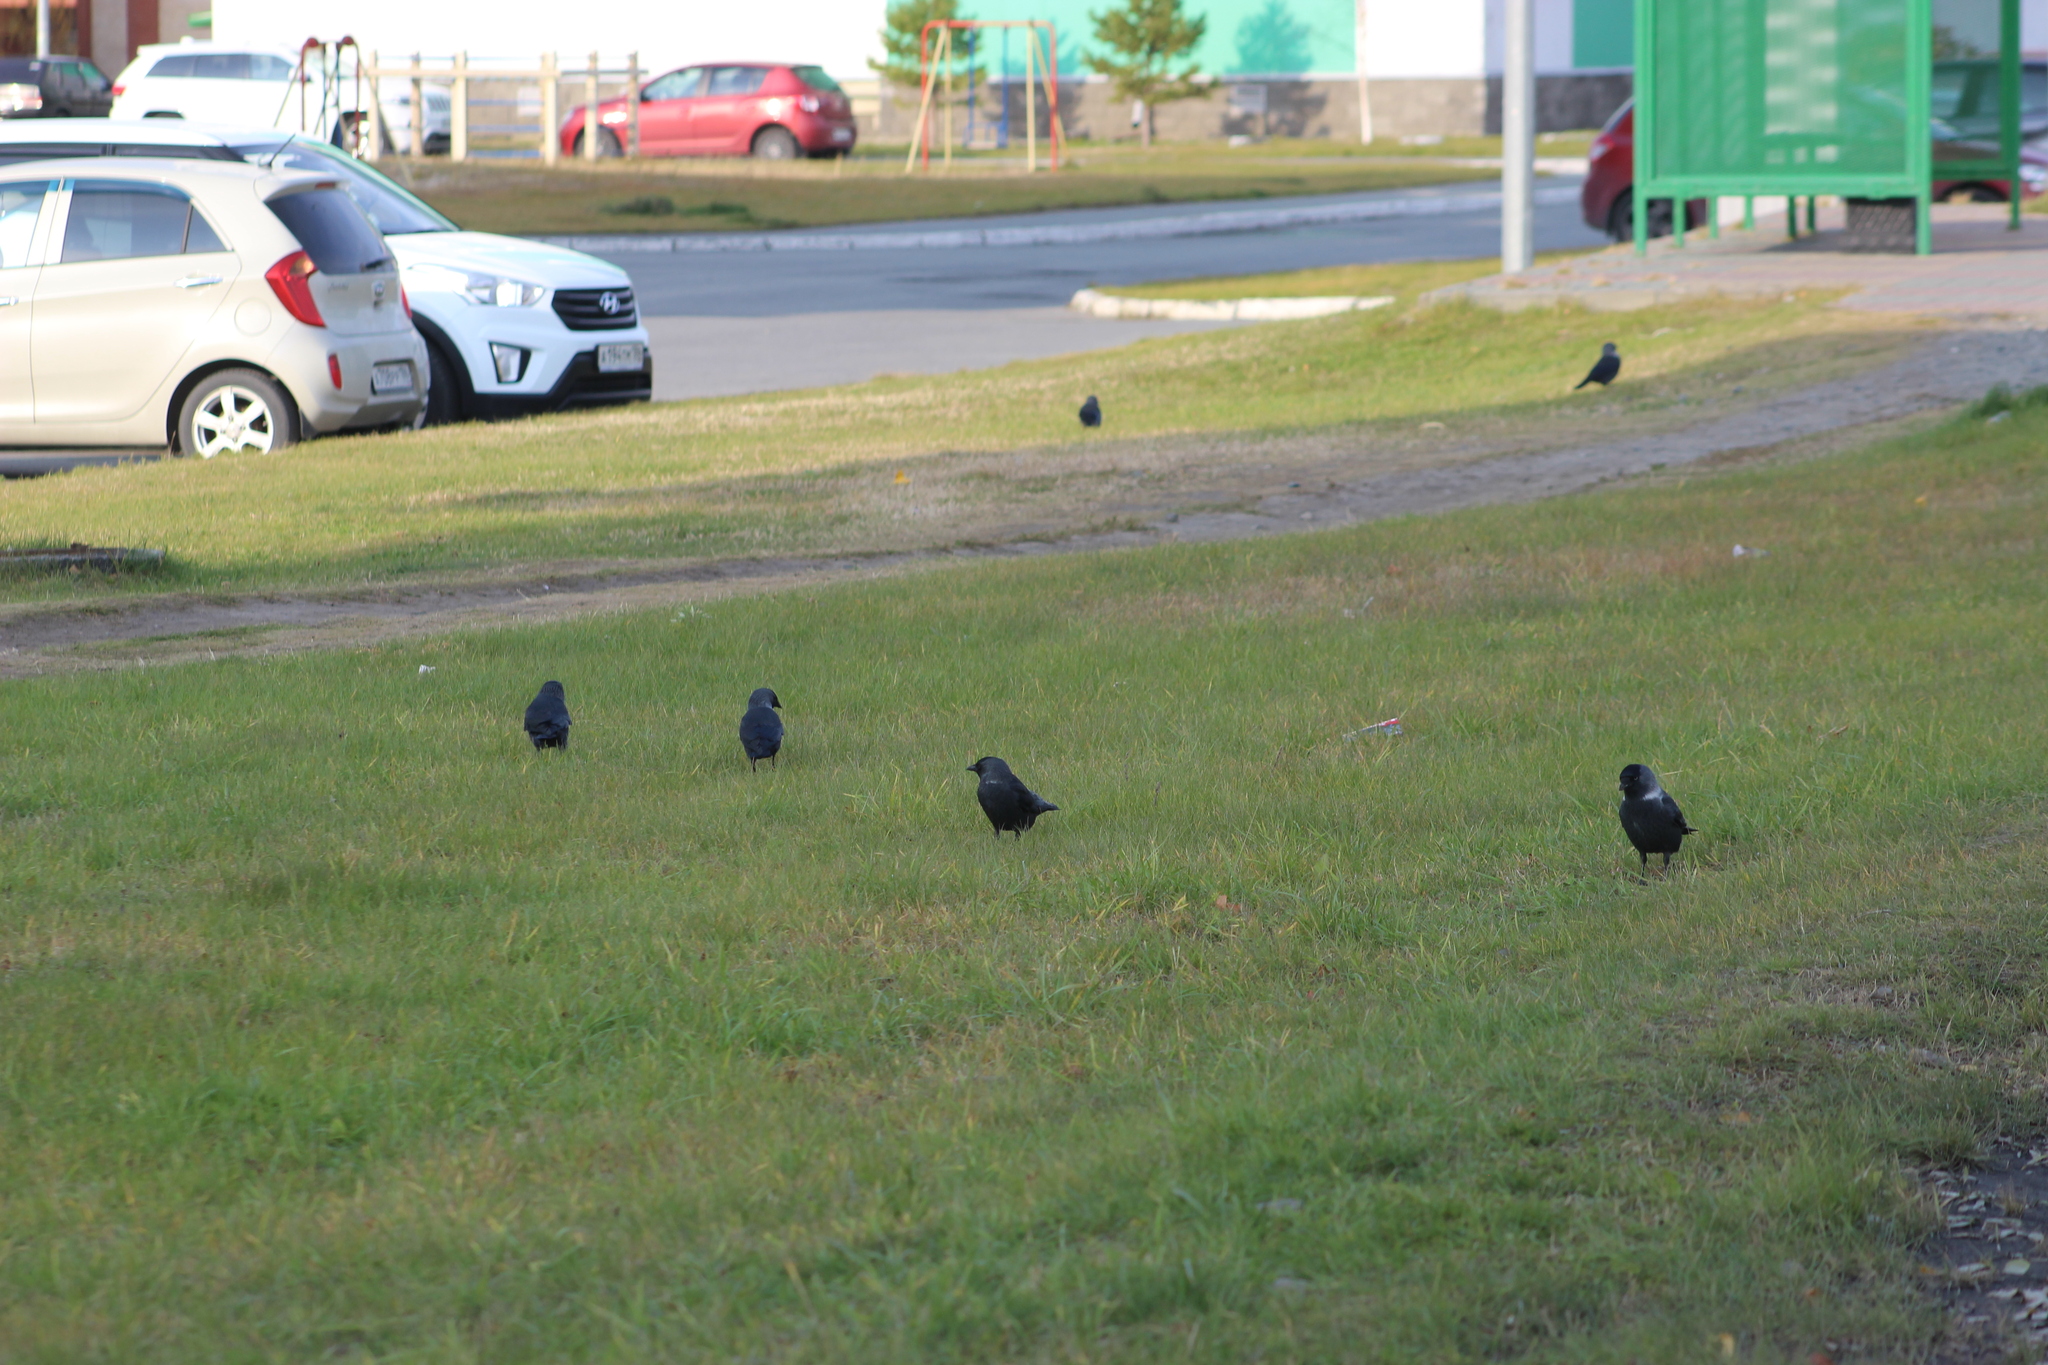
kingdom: Animalia
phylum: Chordata
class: Aves
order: Passeriformes
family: Corvidae
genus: Coloeus
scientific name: Coloeus monedula
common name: Western jackdaw
